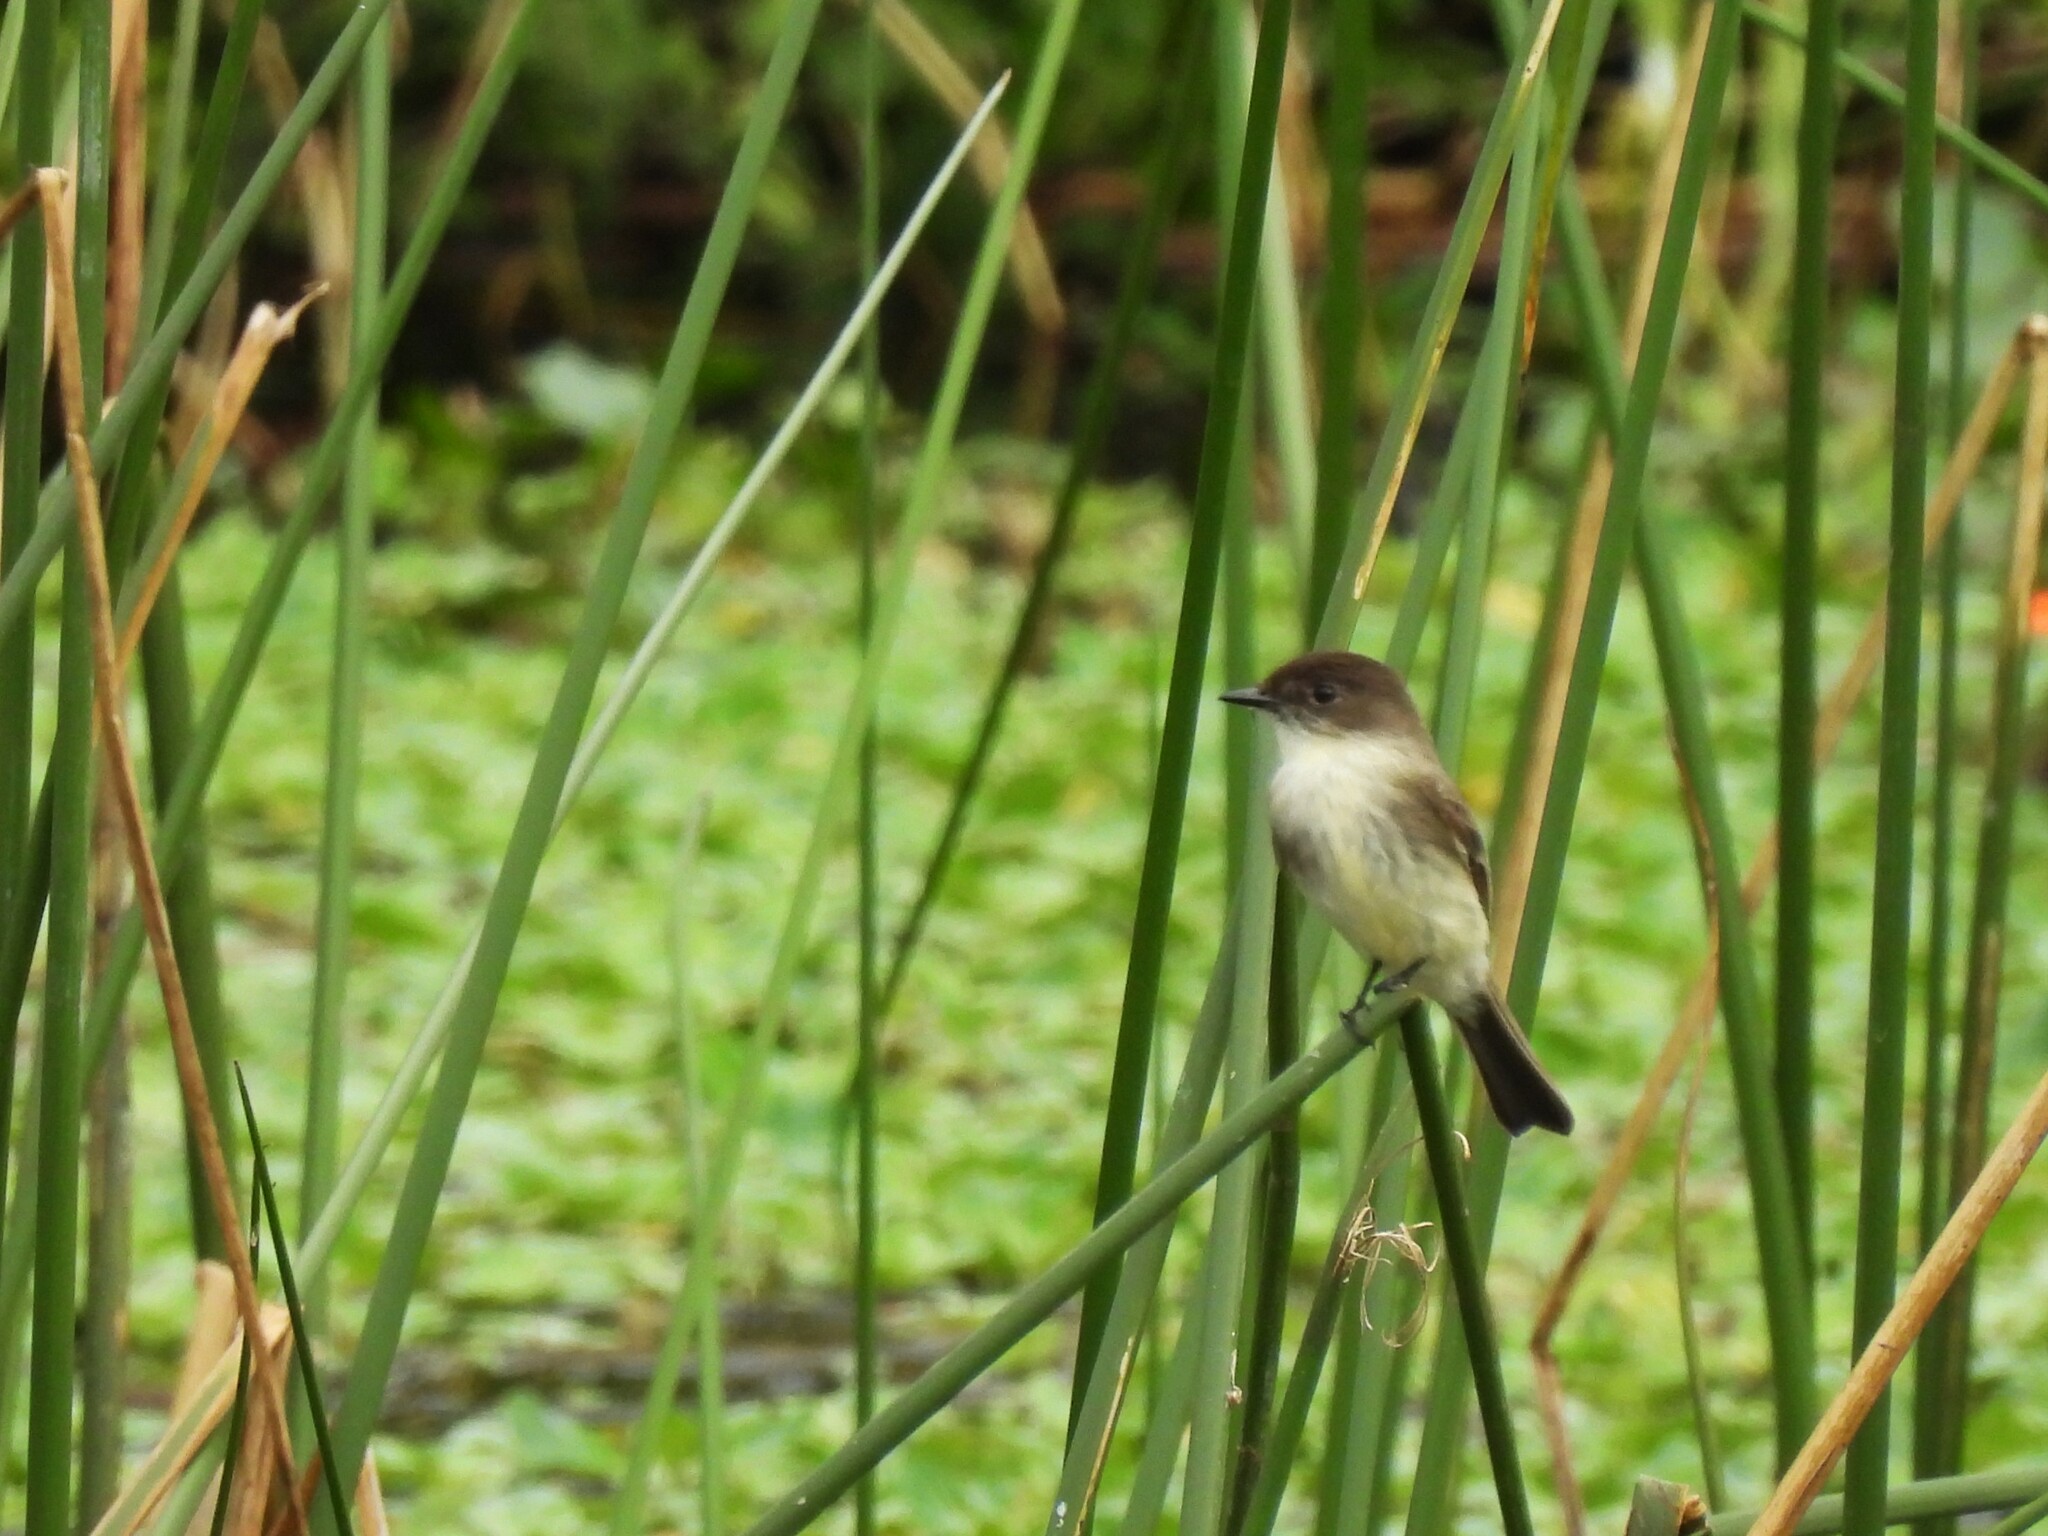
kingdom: Animalia
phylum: Chordata
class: Aves
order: Passeriformes
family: Tyrannidae
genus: Sayornis
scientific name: Sayornis phoebe
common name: Eastern phoebe
